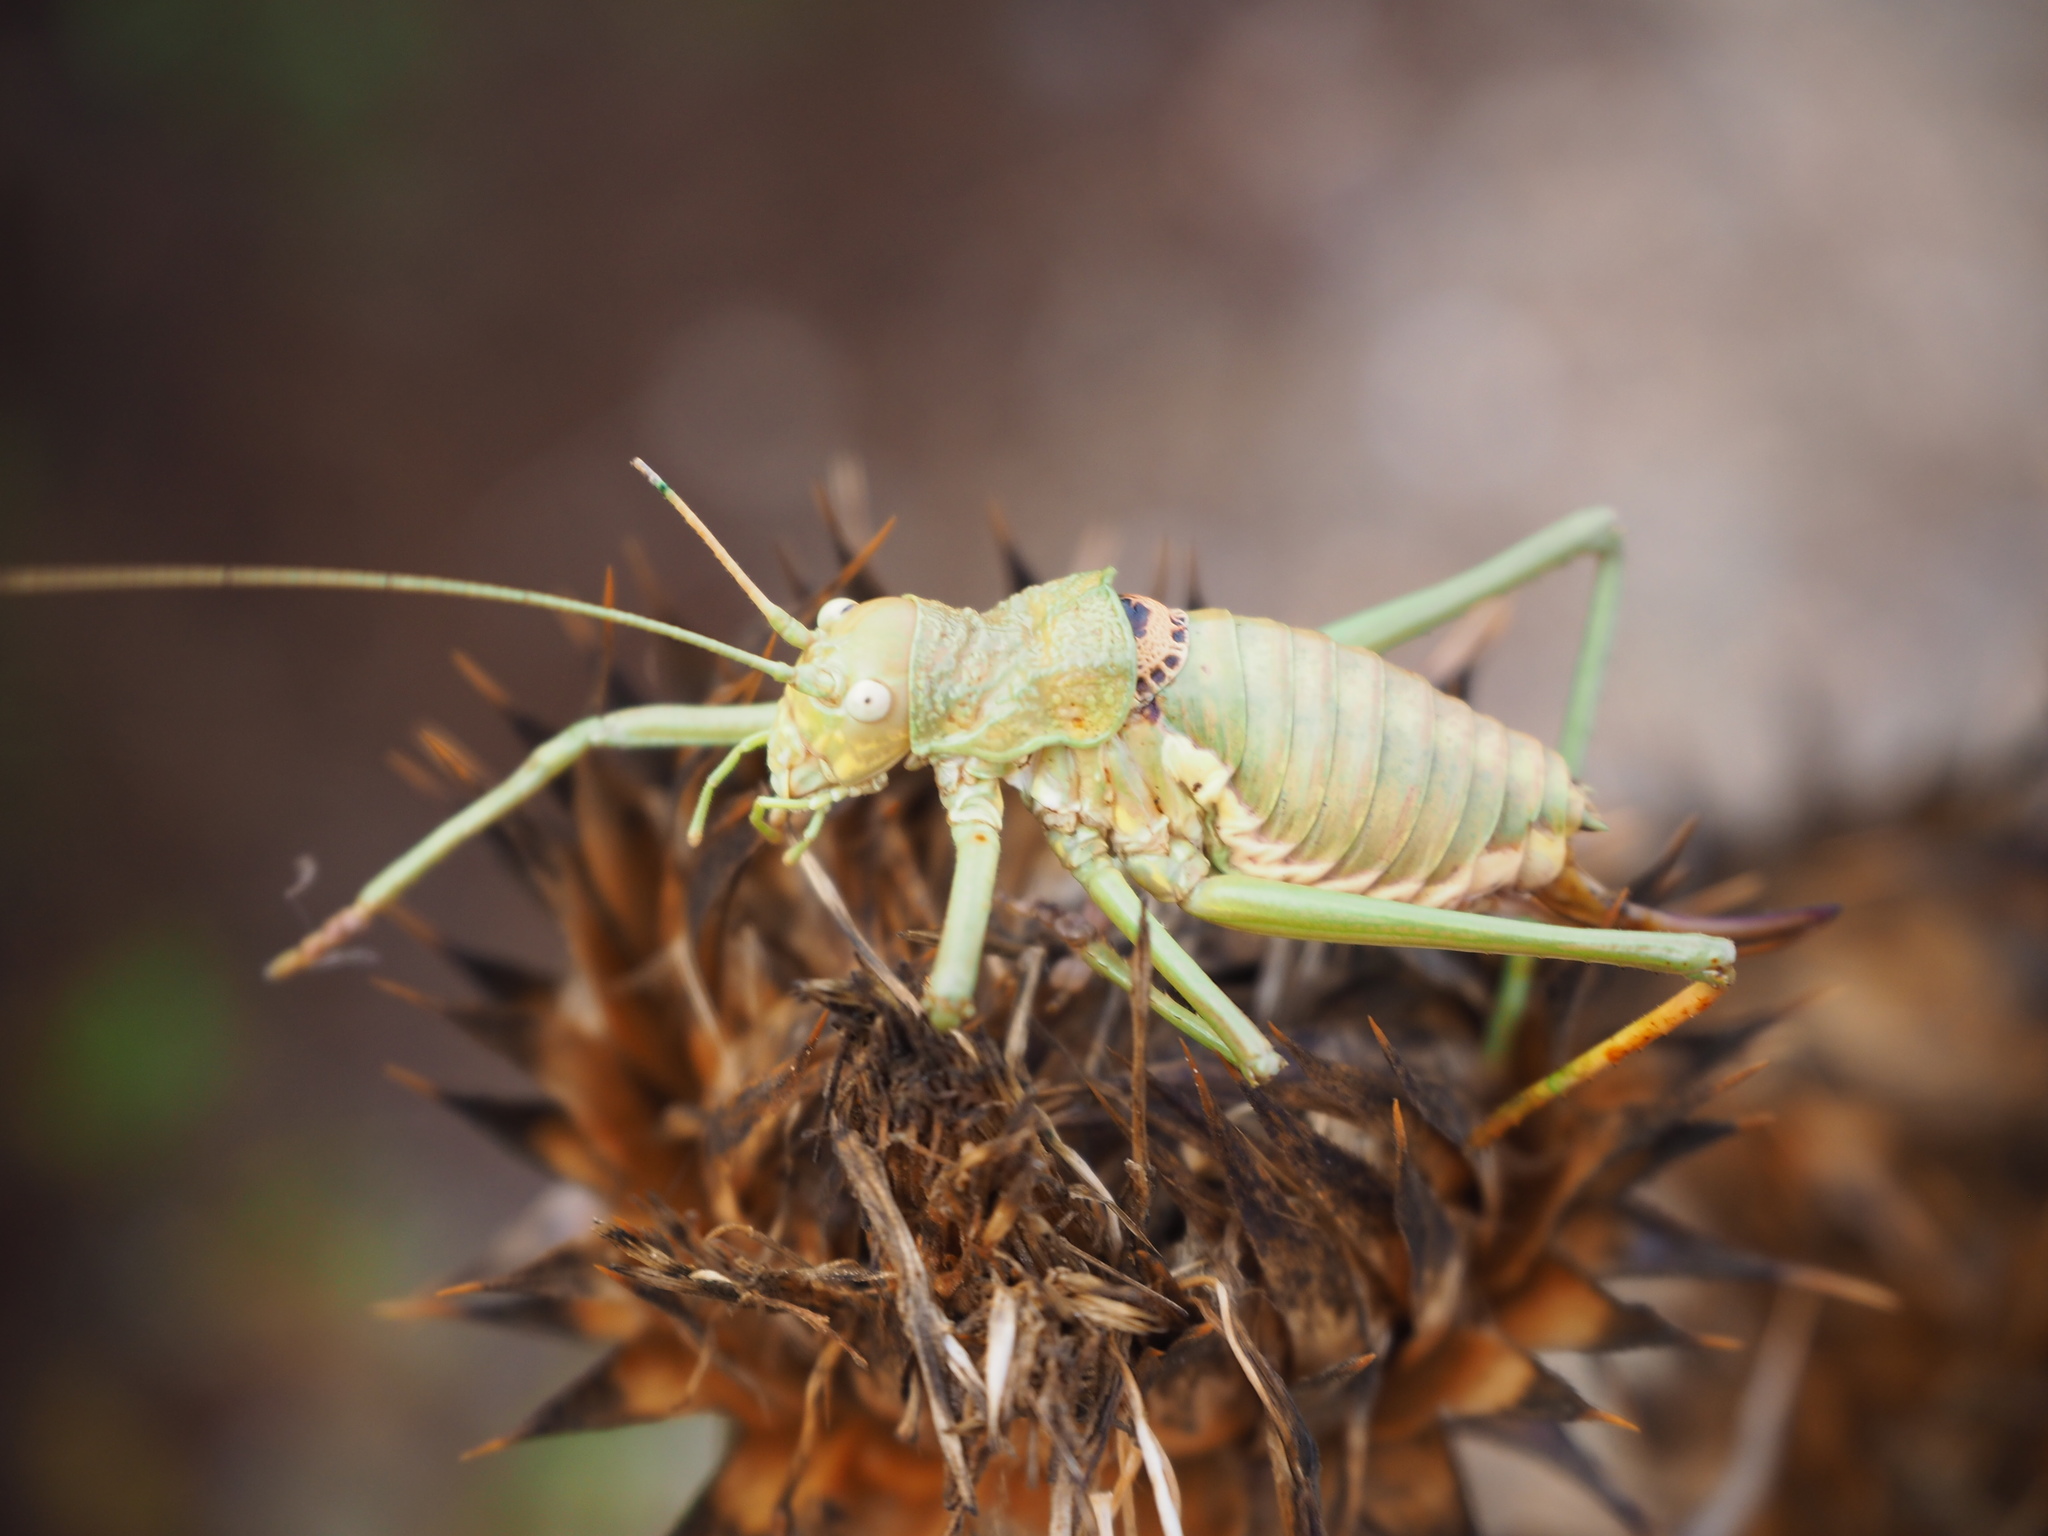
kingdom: Animalia
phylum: Arthropoda
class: Insecta
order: Orthoptera
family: Tettigoniidae
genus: Uromenus
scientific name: Uromenus brevicollis
